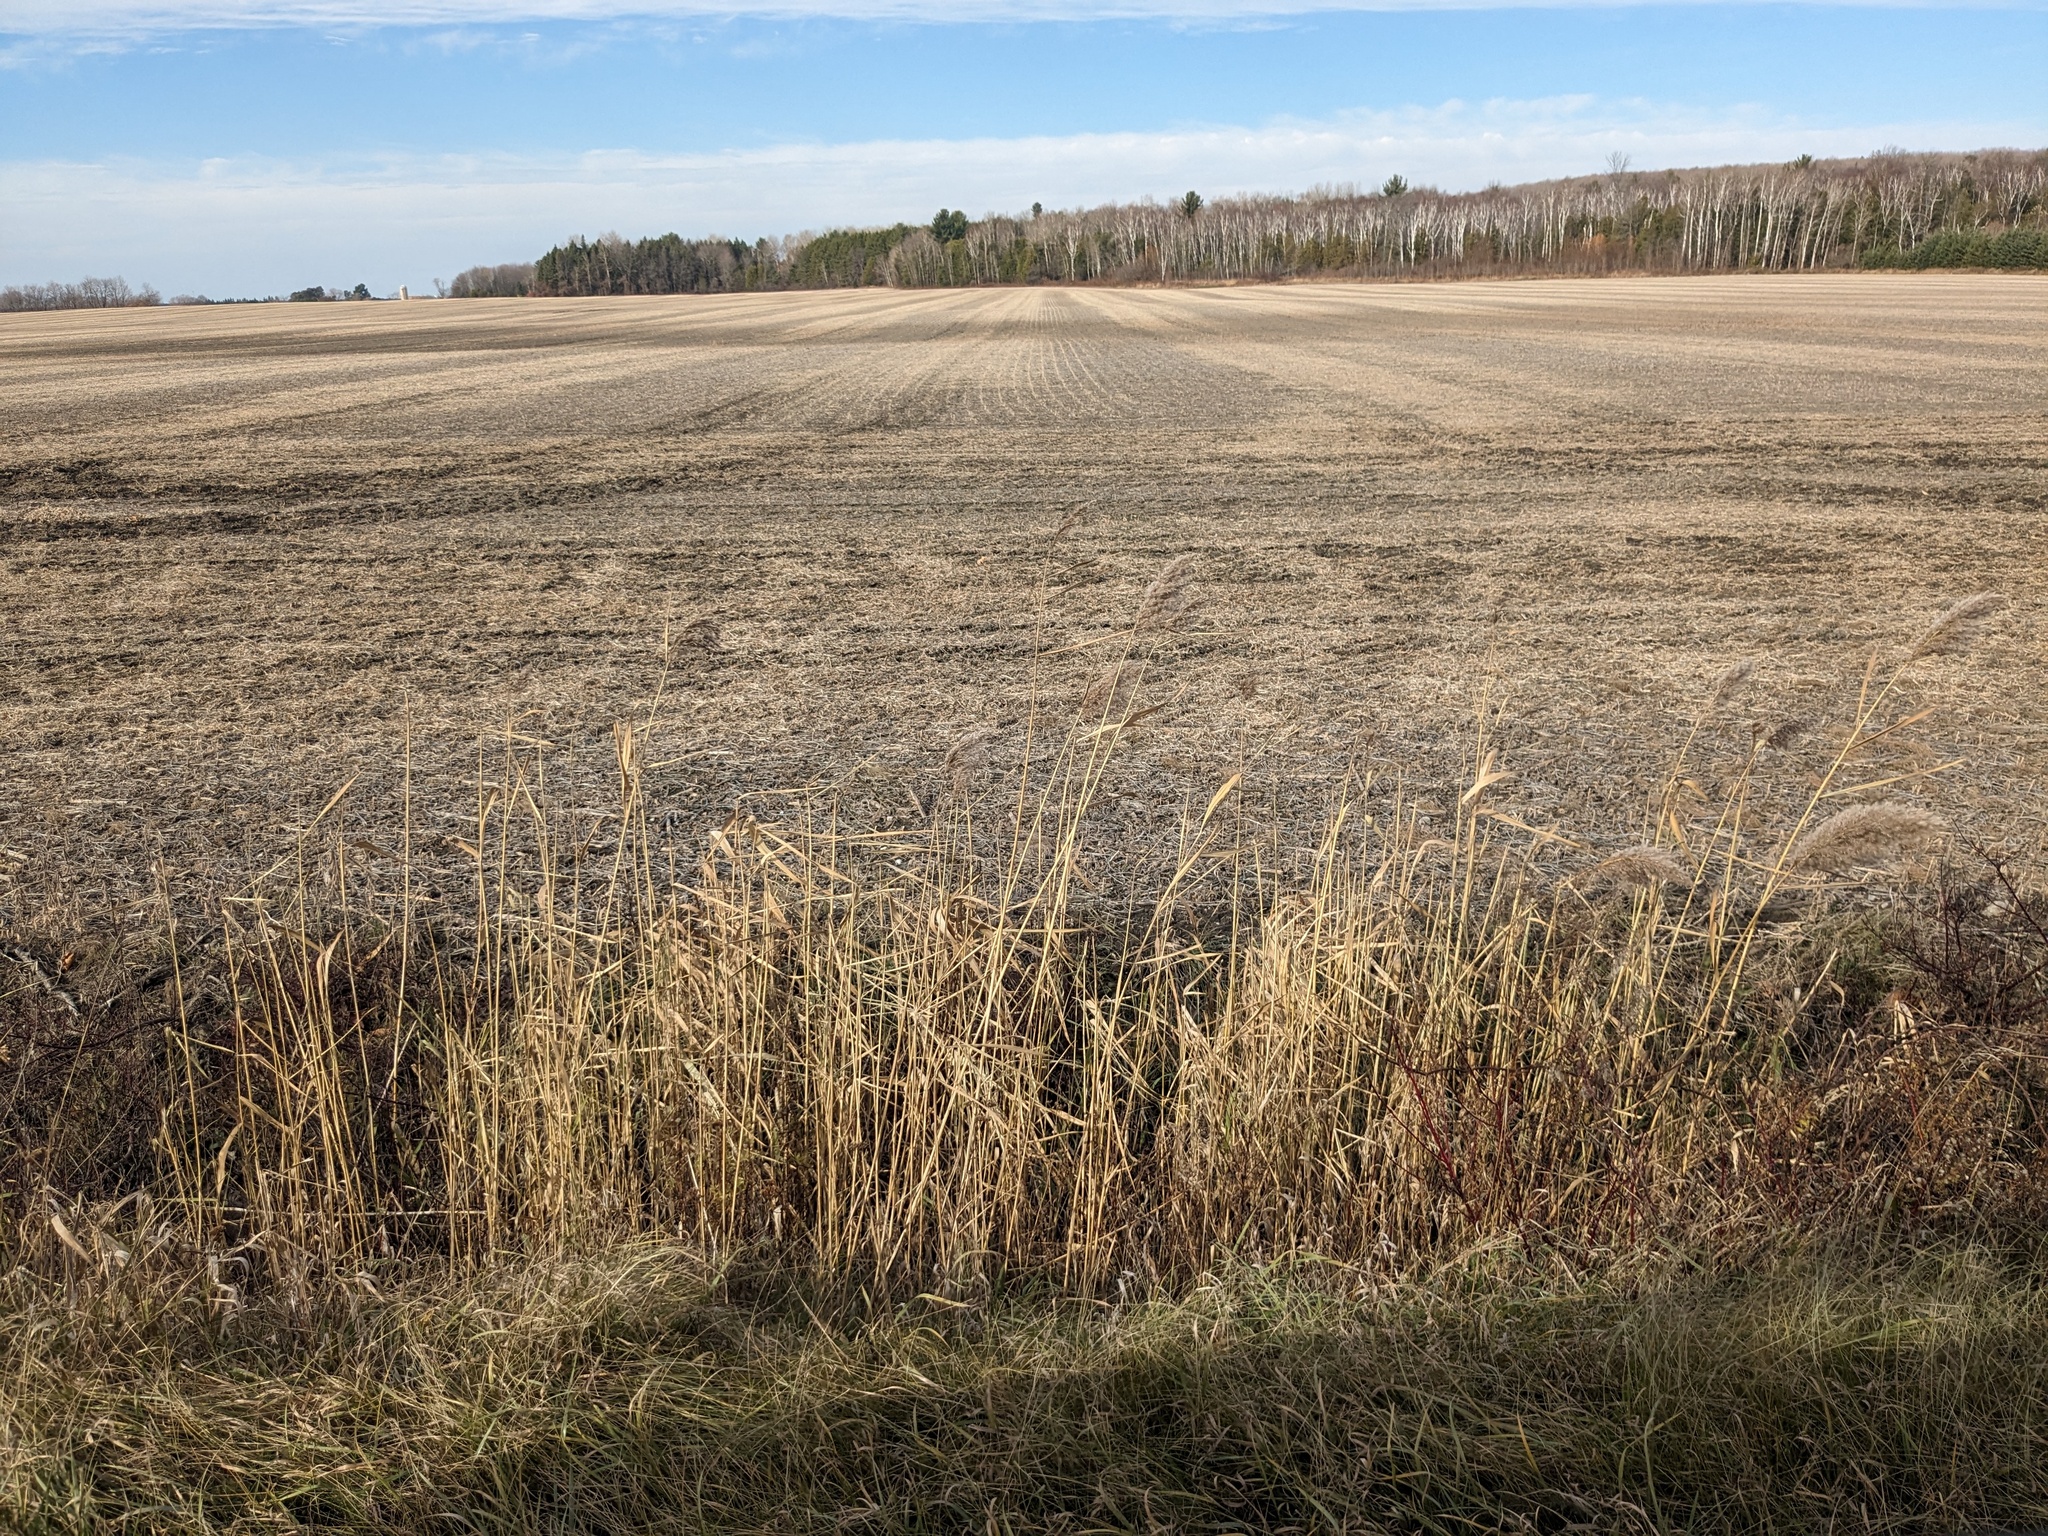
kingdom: Plantae
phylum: Tracheophyta
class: Liliopsida
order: Poales
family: Poaceae
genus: Phragmites
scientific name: Phragmites australis
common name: Common reed
